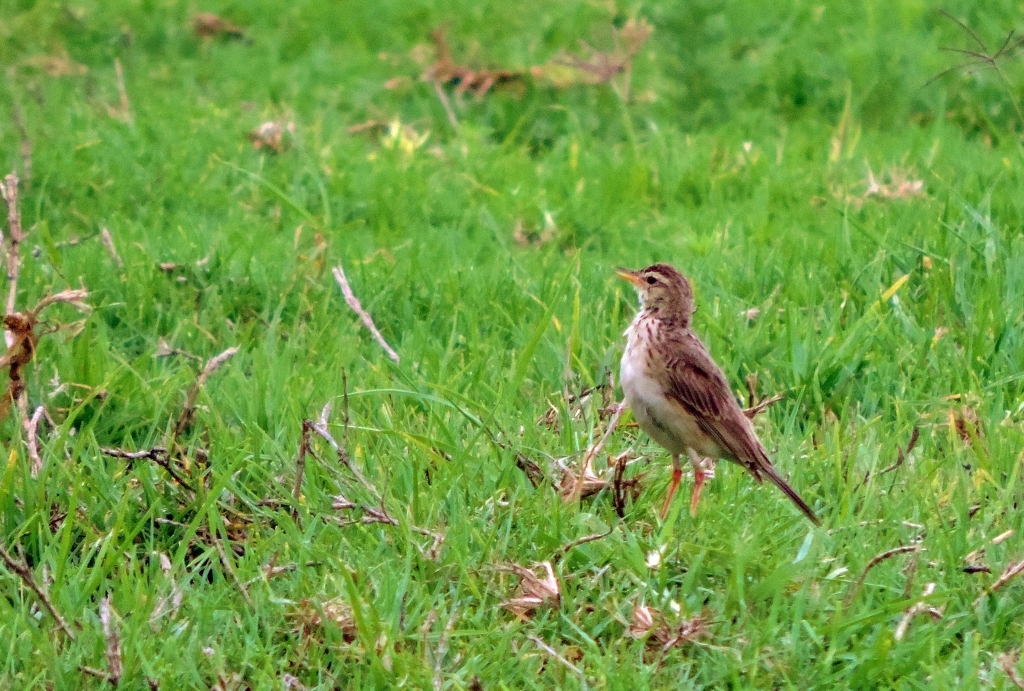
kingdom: Animalia
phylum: Chordata
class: Aves
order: Passeriformes
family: Motacillidae
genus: Anthus
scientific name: Anthus cinnamomeus
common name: African pipit
